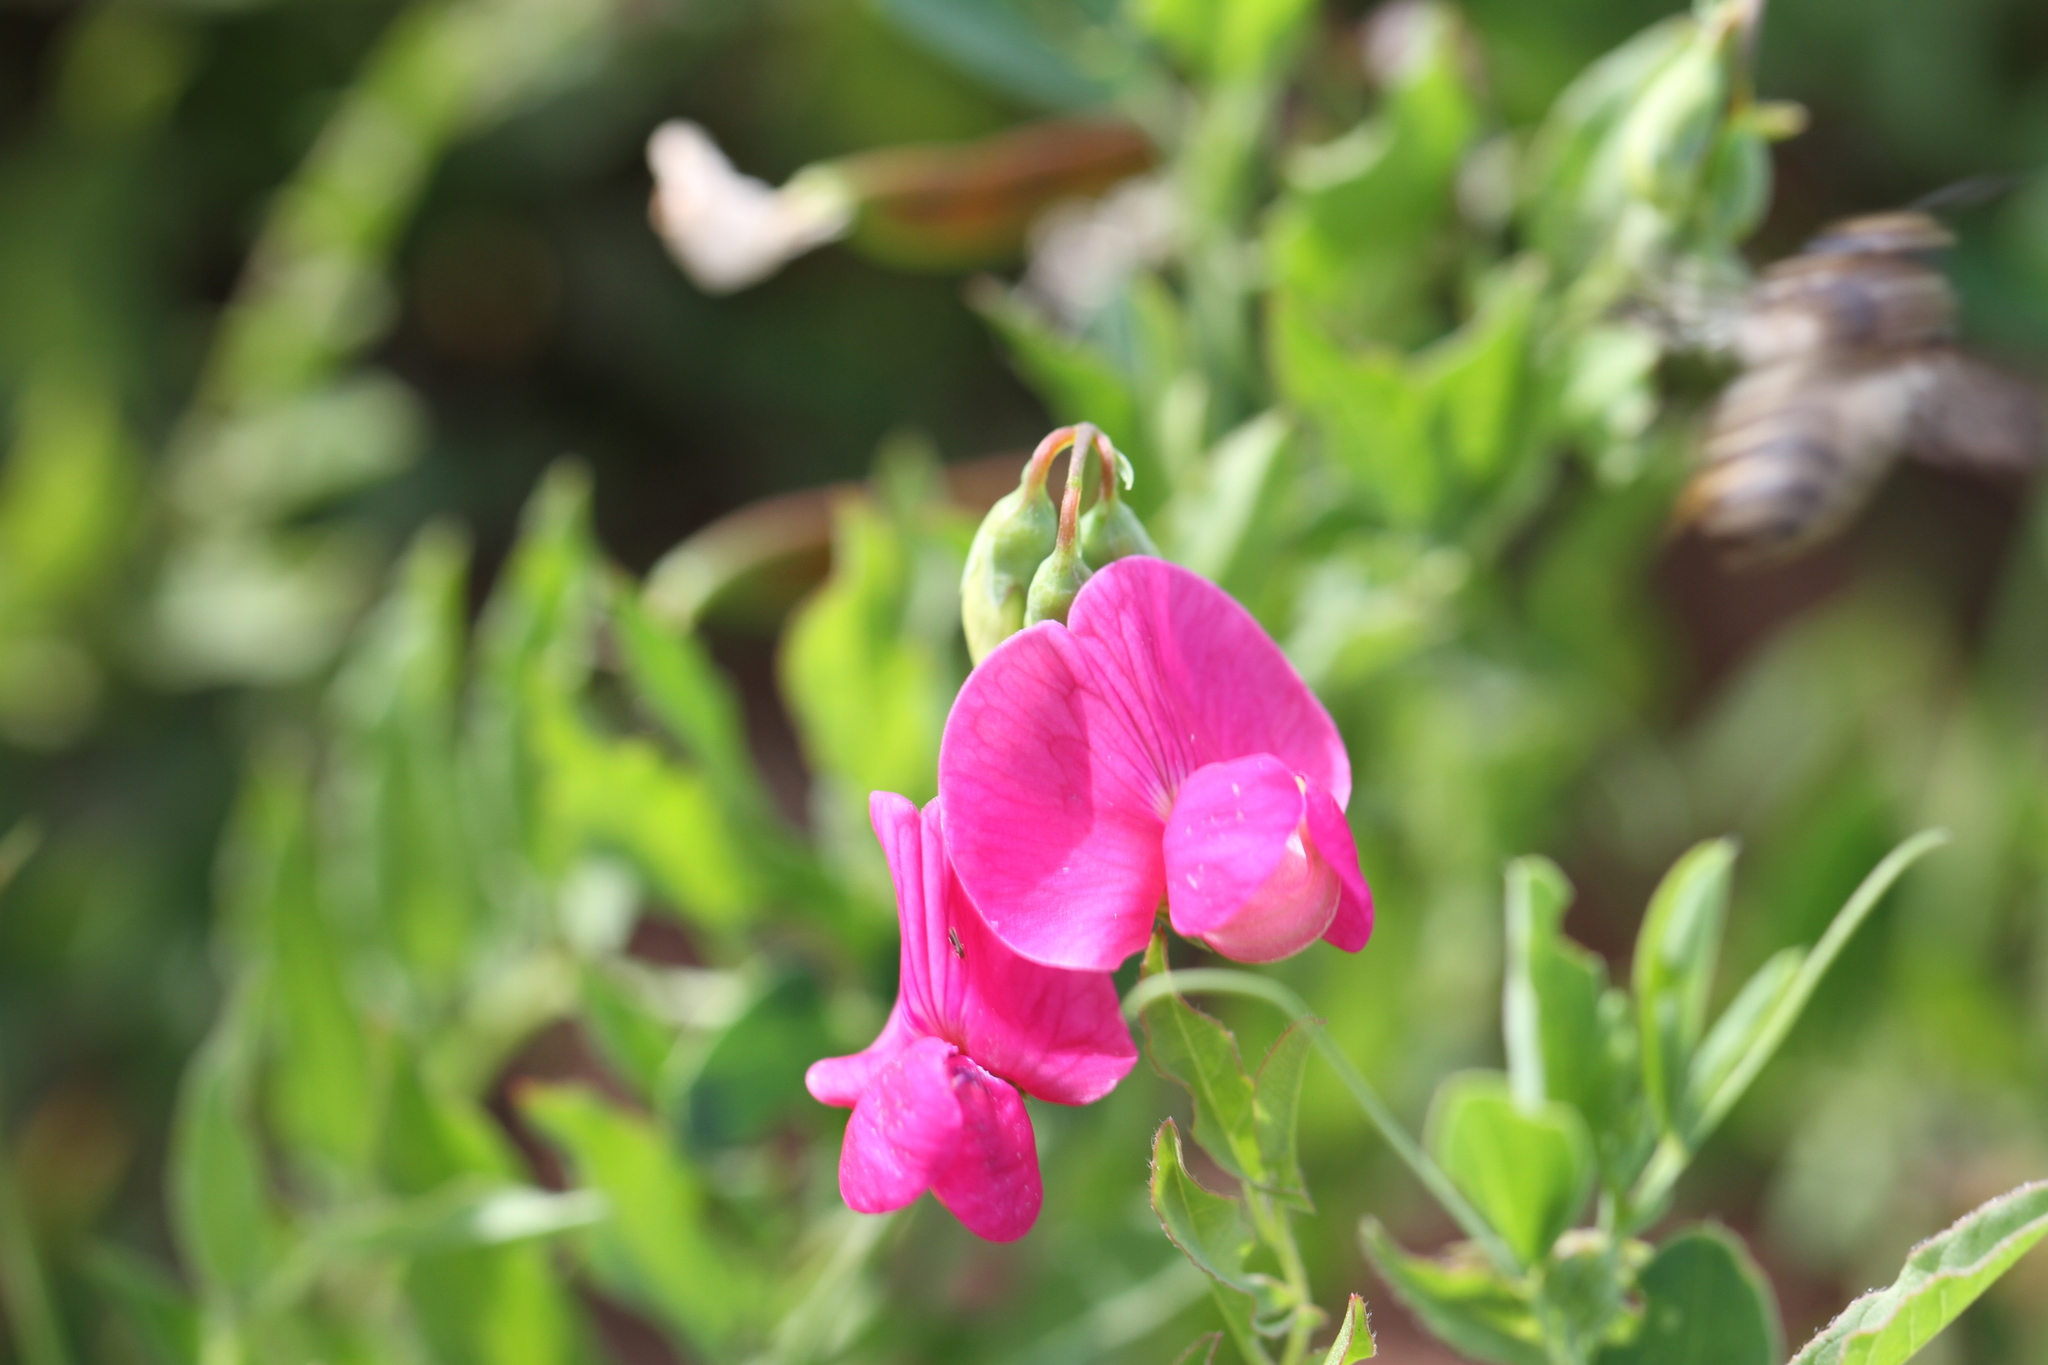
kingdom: Plantae
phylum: Tracheophyta
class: Magnoliopsida
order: Fabales
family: Fabaceae
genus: Lathyrus
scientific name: Lathyrus tuberosus
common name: Tuberous pea
